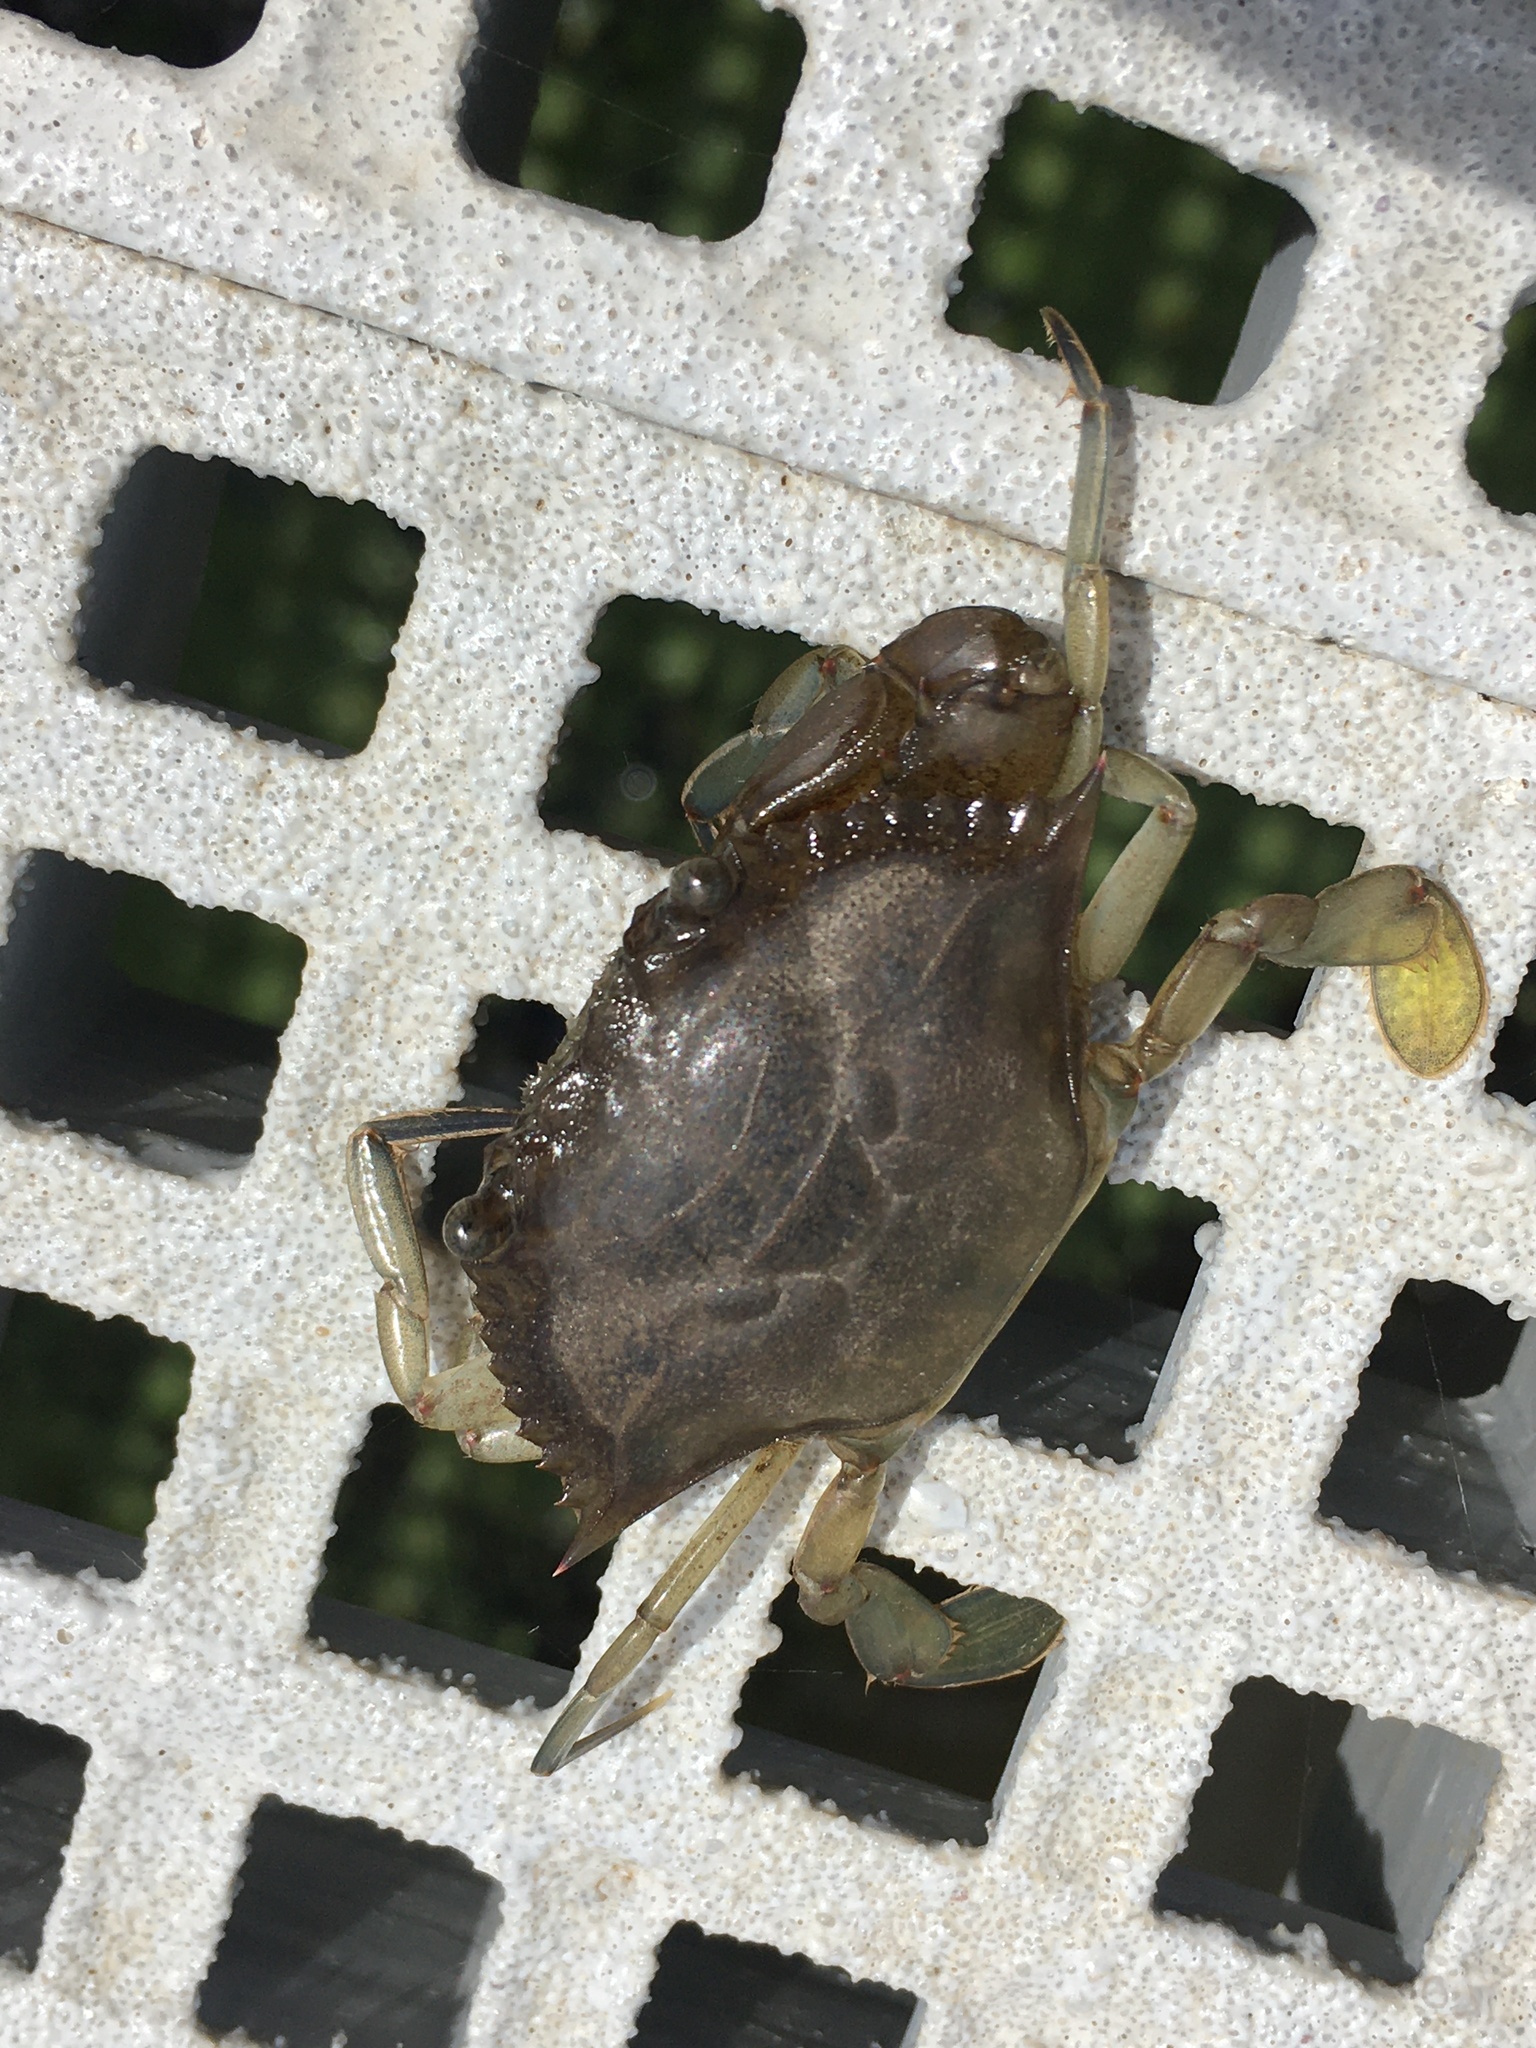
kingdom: Animalia
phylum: Arthropoda
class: Malacostraca
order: Decapoda
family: Portunidae
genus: Callinectes
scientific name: Callinectes sapidus
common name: Blue crab
